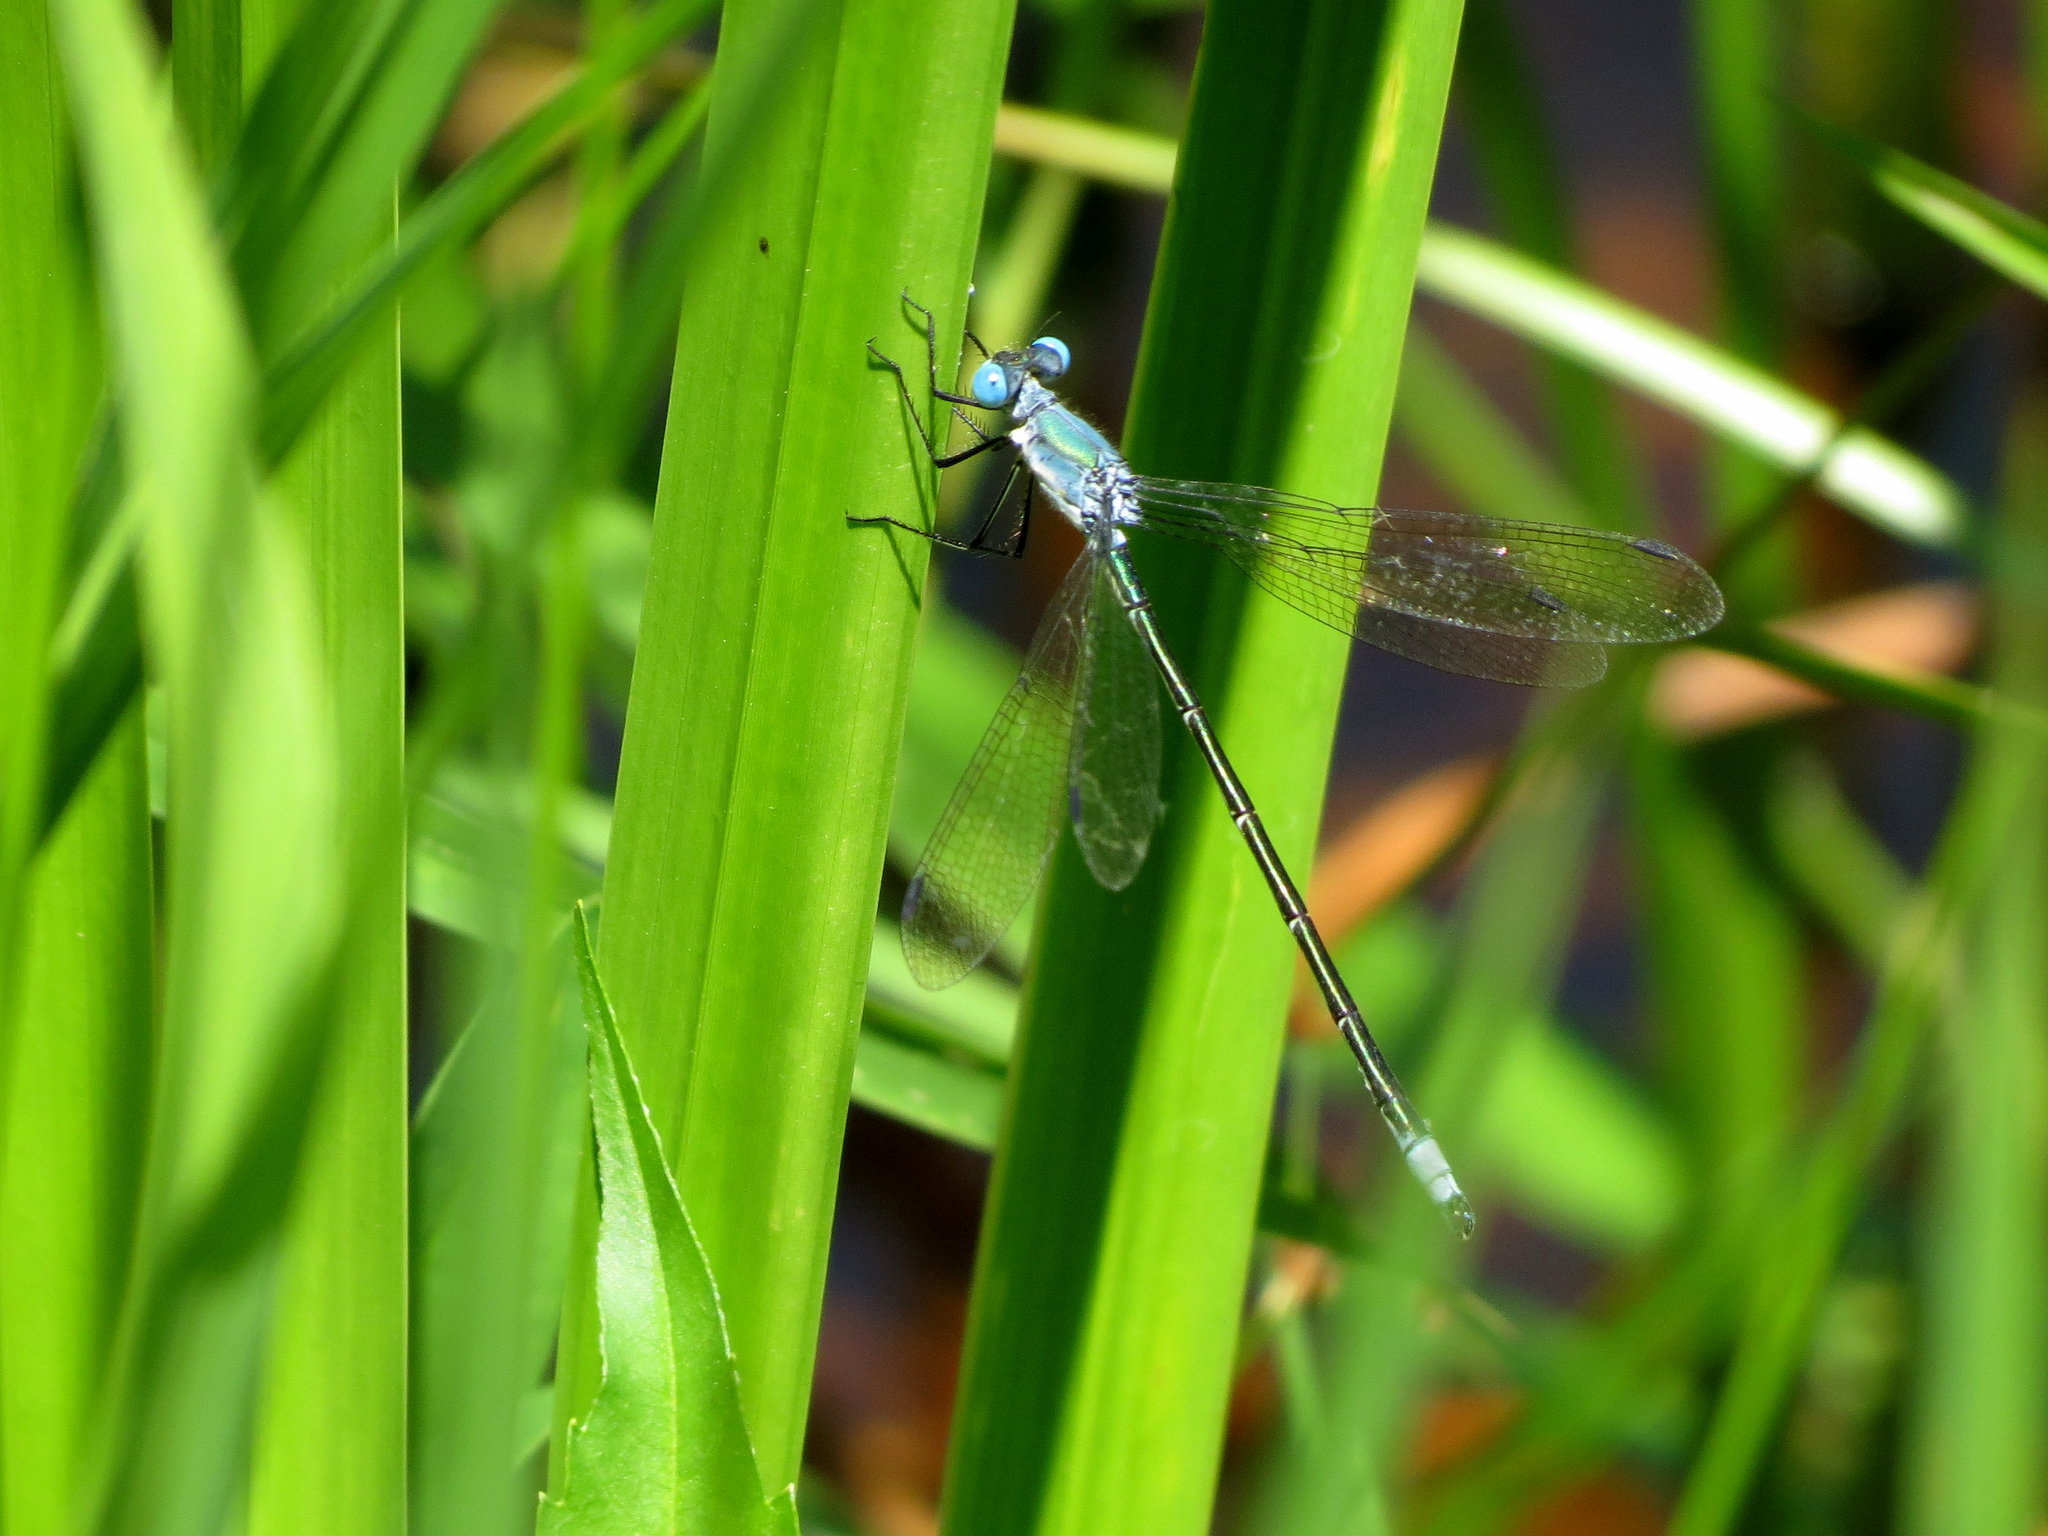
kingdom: Animalia
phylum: Arthropoda
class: Insecta
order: Odonata
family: Lestidae
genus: Lestes
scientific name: Lestes eurinus
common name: Amber-winged spreadwing
